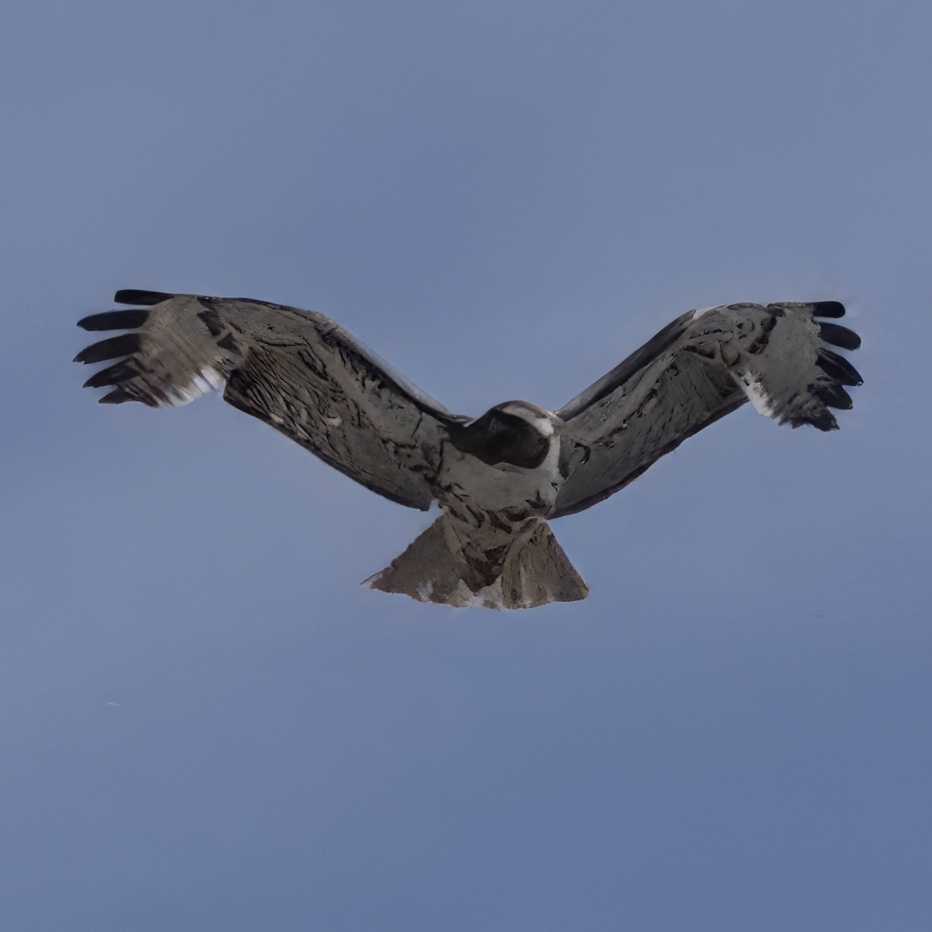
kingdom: Animalia
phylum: Chordata
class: Aves
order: Accipitriformes
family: Accipitridae
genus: Buteo
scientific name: Buteo jamaicensis
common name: Red-tailed hawk
